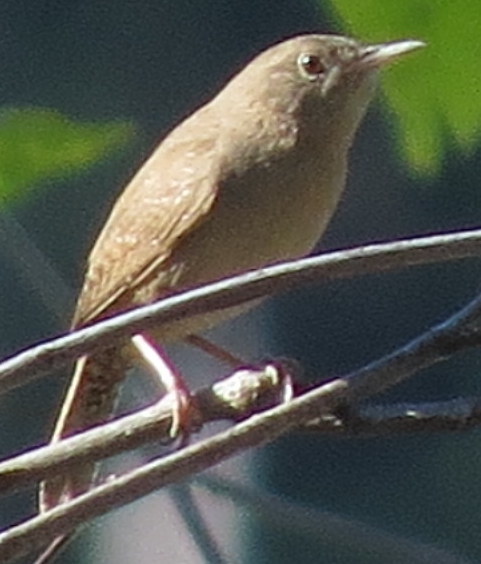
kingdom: Animalia
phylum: Chordata
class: Aves
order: Passeriformes
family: Troglodytidae
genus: Troglodytes
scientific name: Troglodytes aedon
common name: House wren
